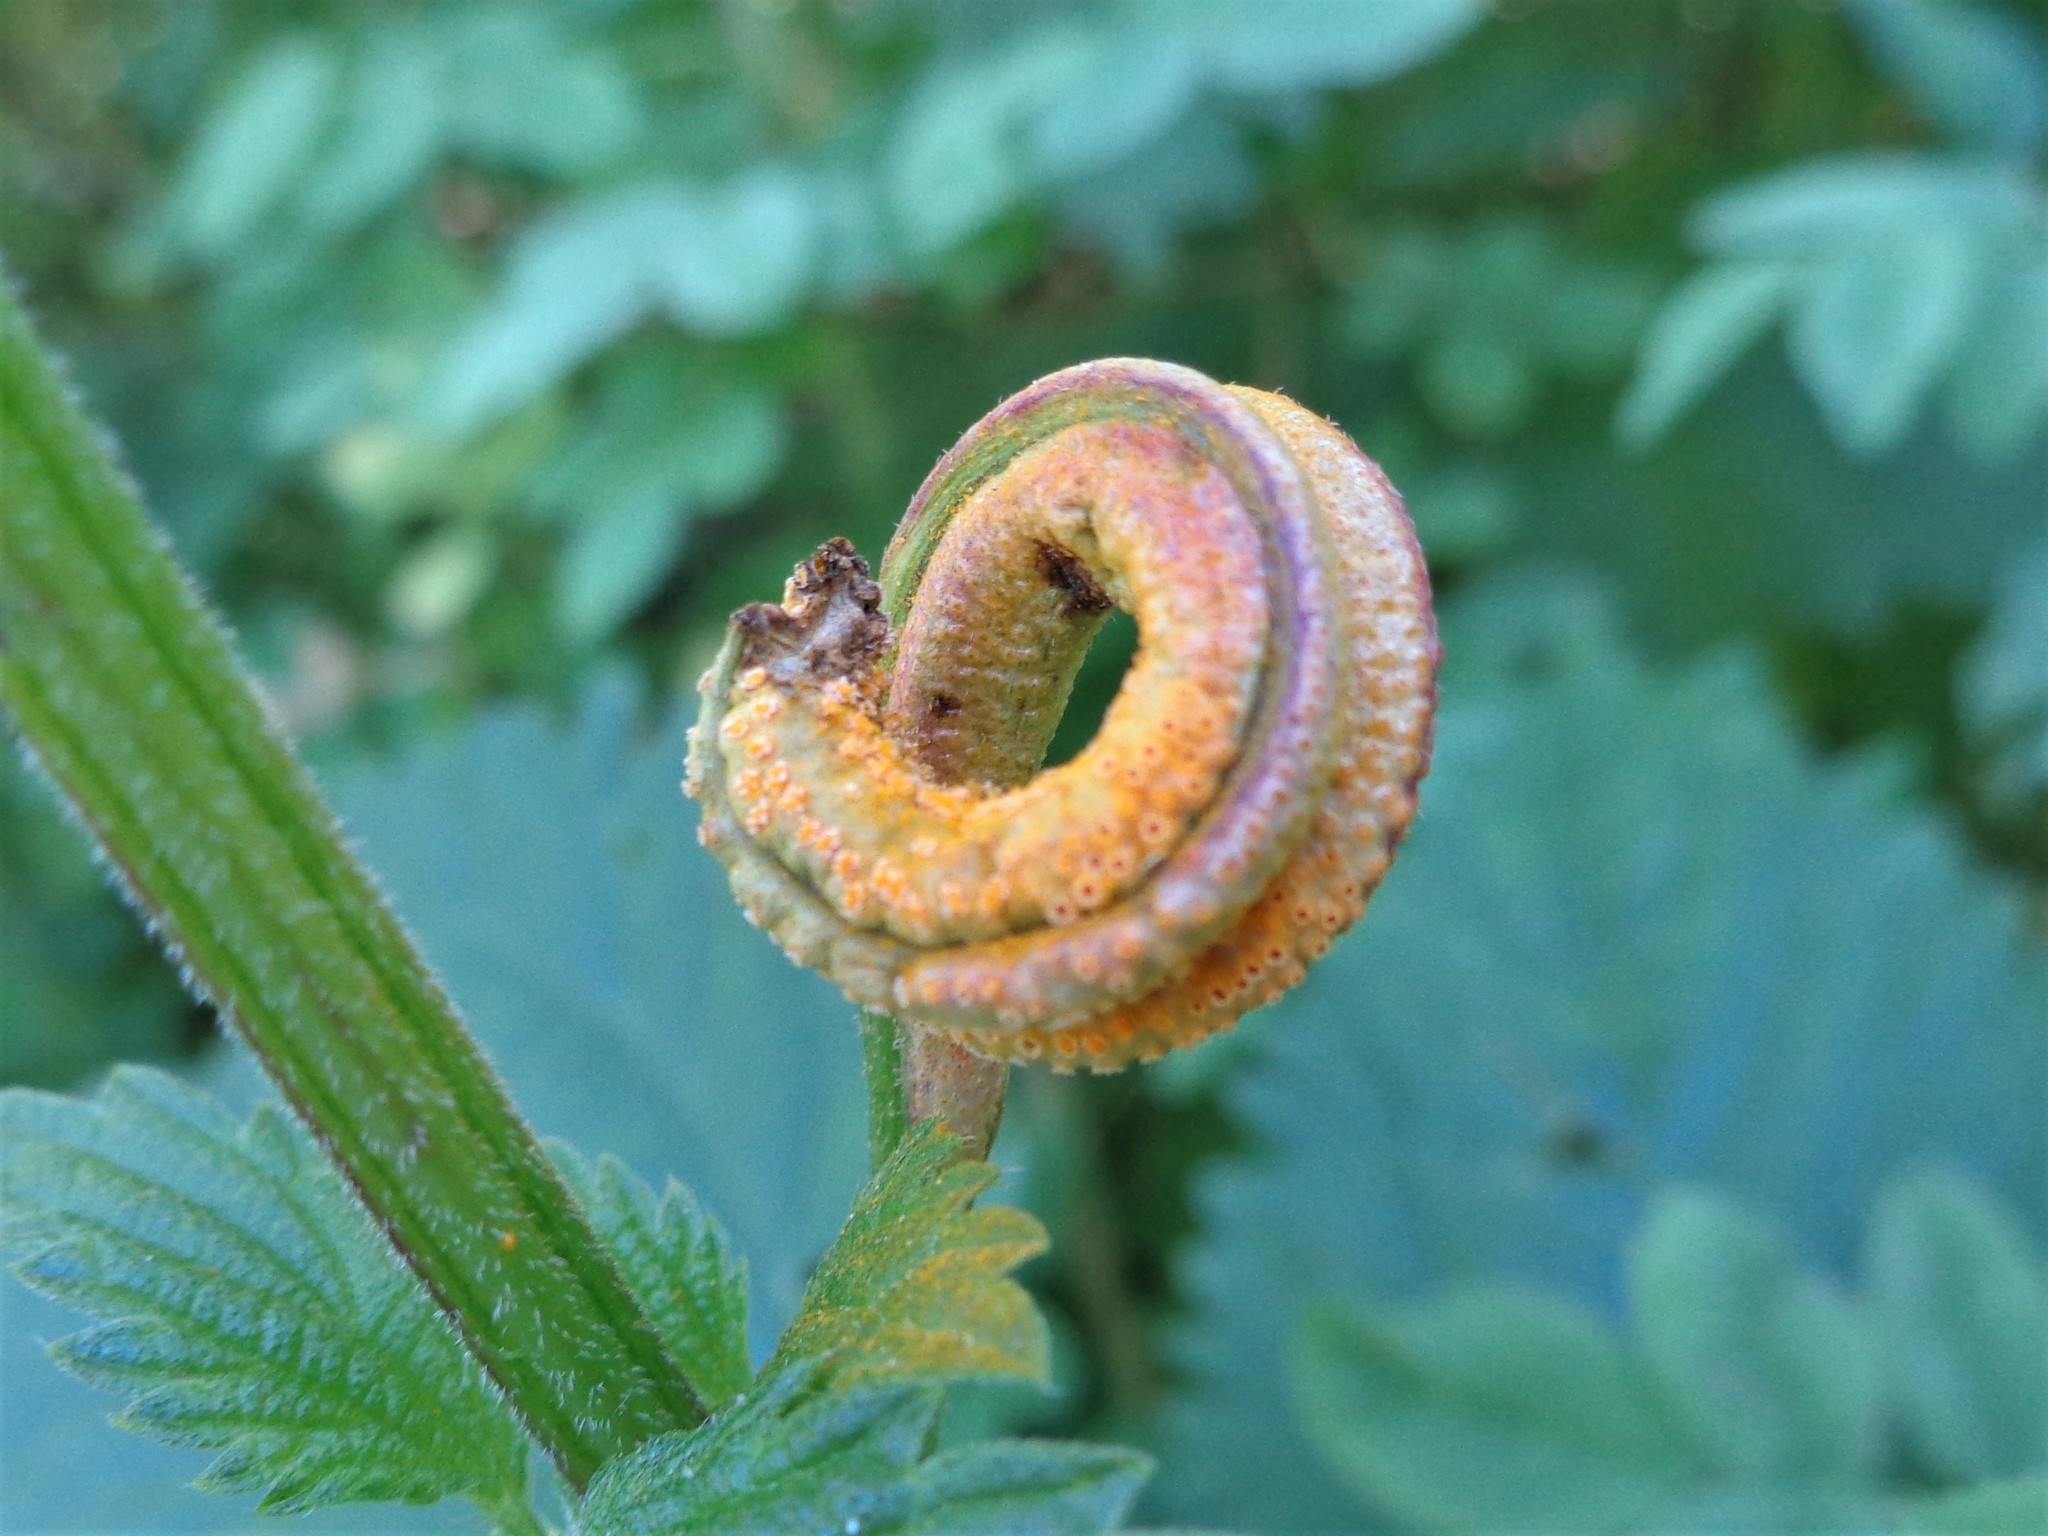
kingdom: Fungi
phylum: Basidiomycota
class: Pucciniomycetes
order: Pucciniales
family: Pucciniaceae
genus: Puccinia
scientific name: Puccinia urticata
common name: Nettle clustercup rust fungus
